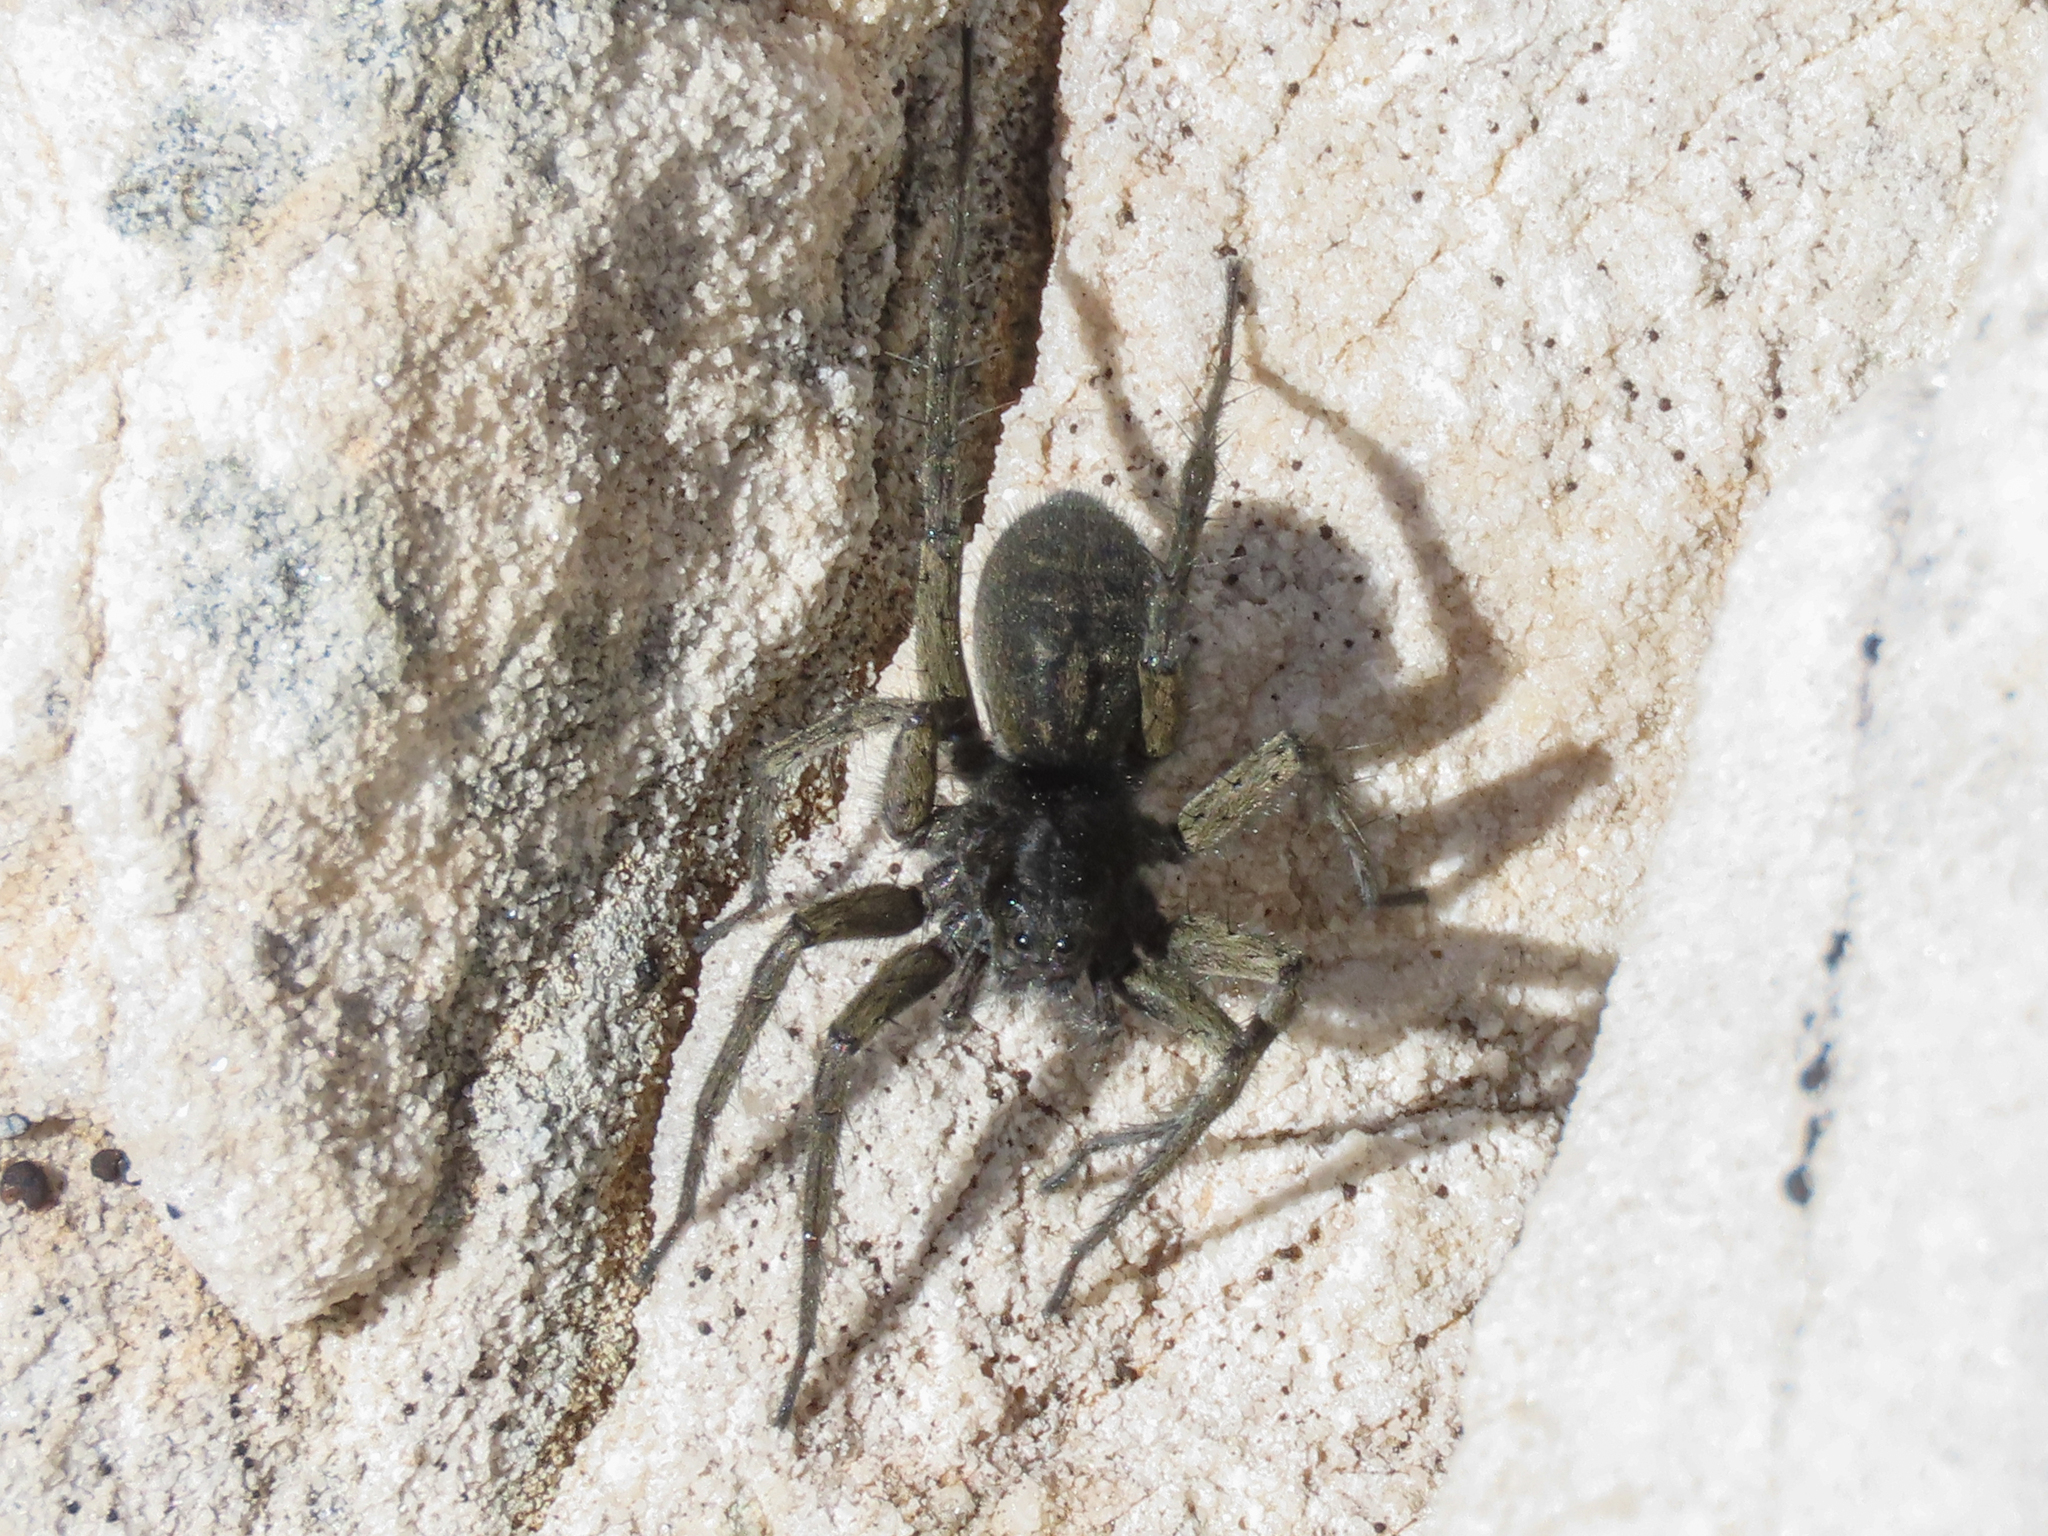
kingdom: Animalia
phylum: Arthropoda
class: Arachnida
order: Araneae
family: Lycosidae
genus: Pardosa
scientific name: Pardosa cavannae
